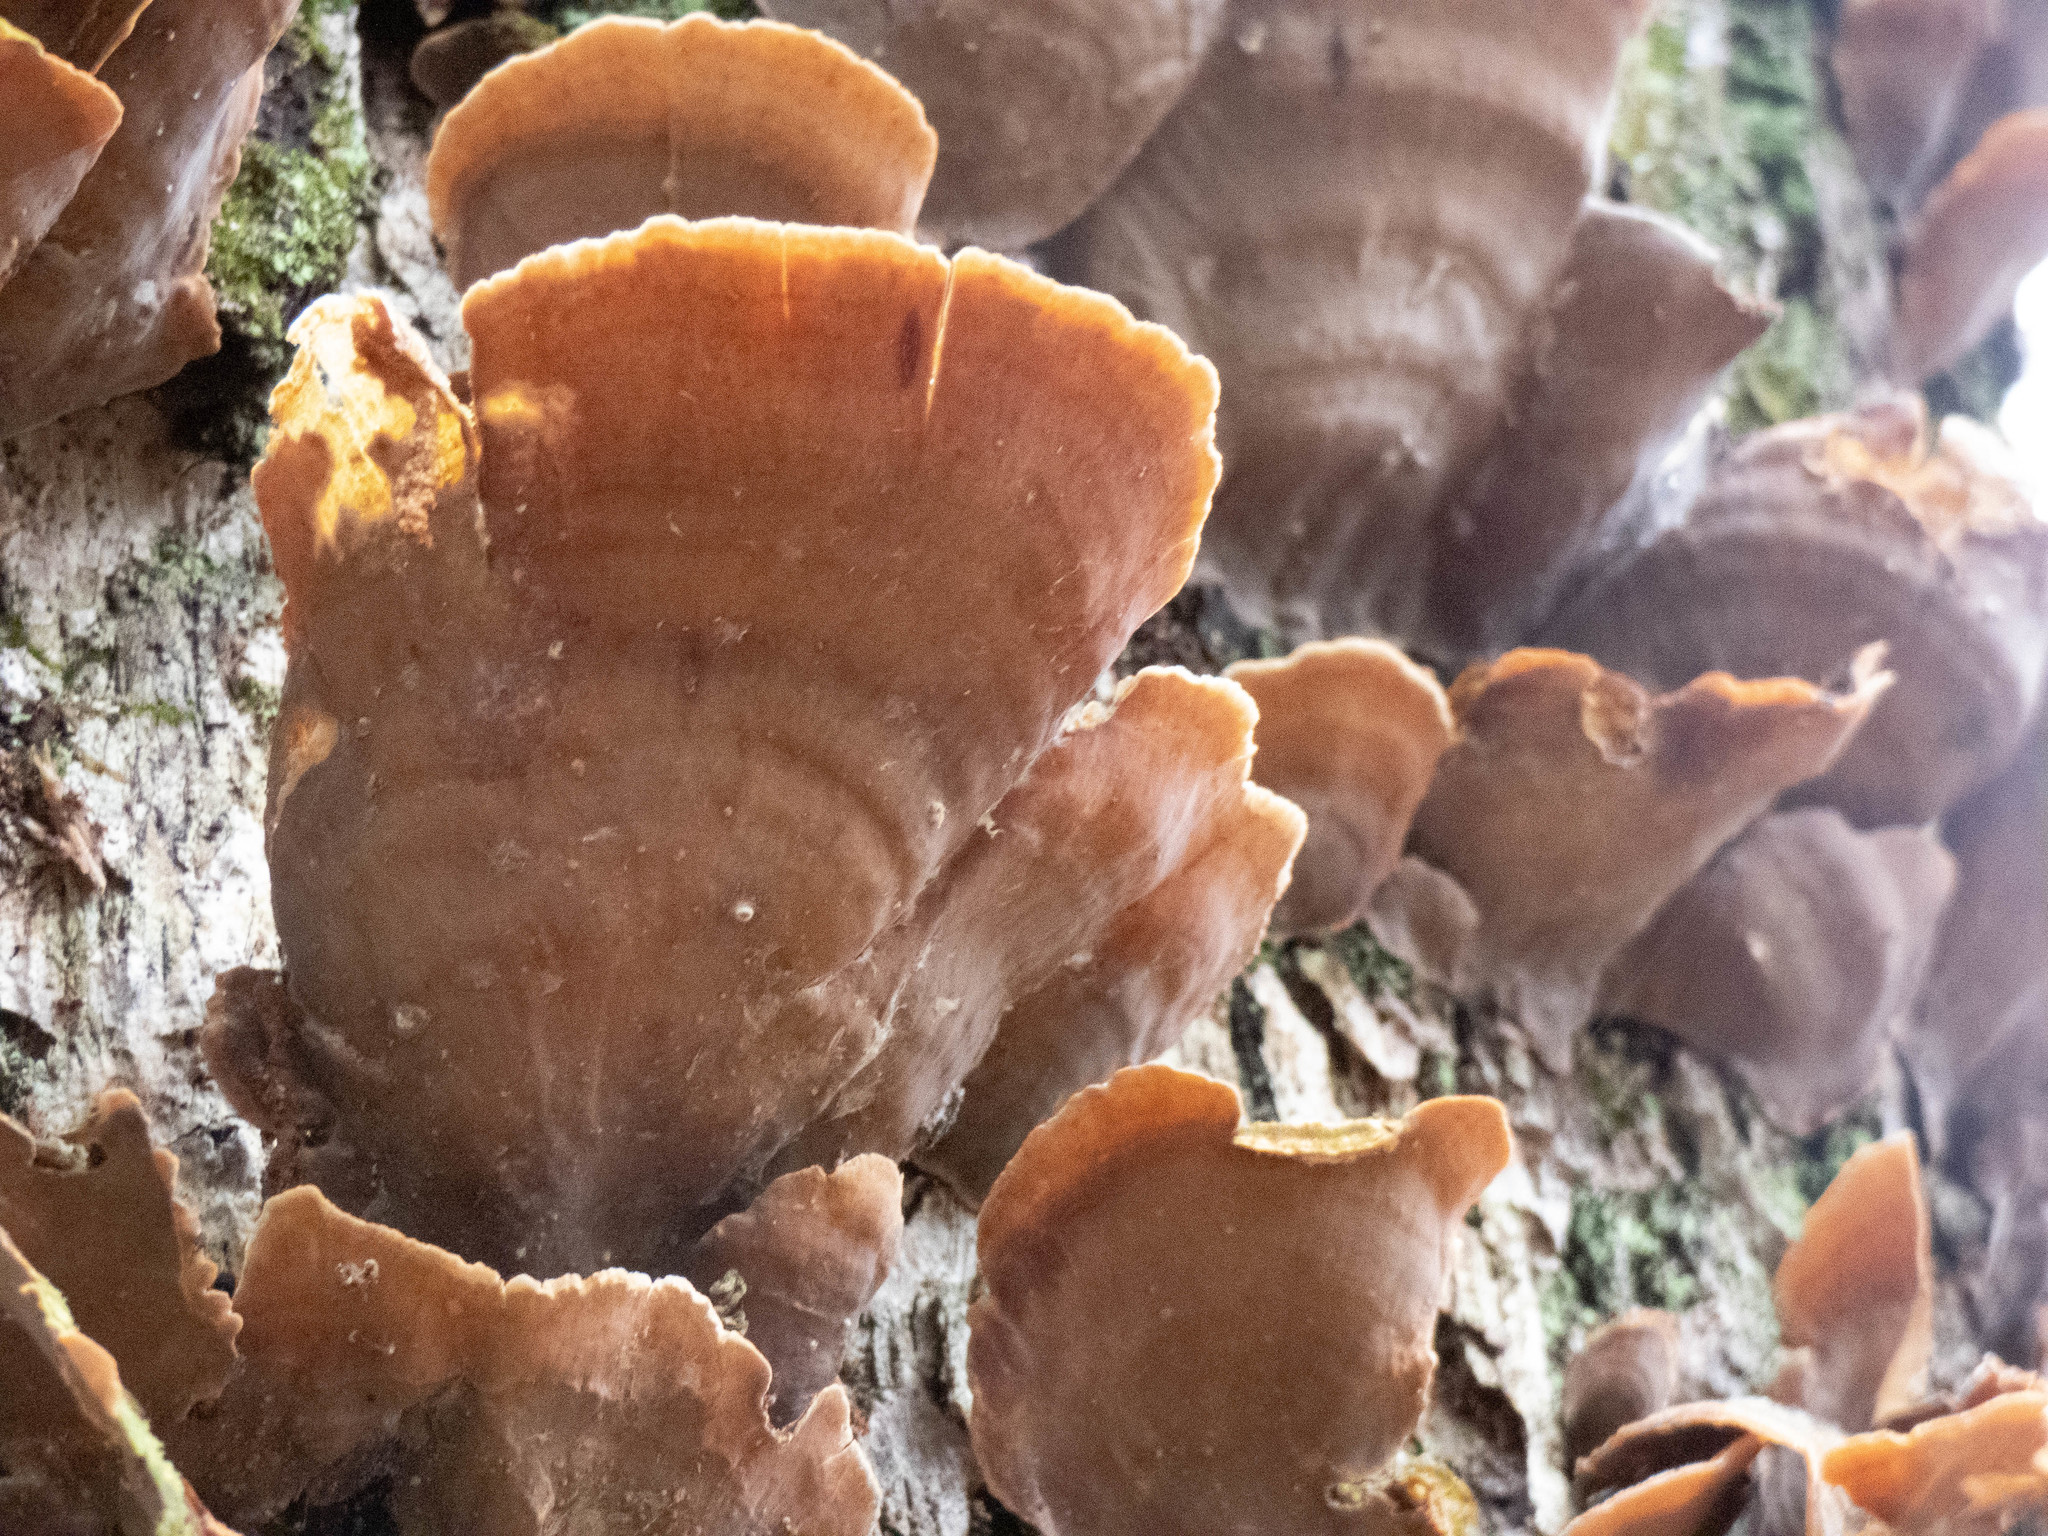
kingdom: Fungi
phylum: Basidiomycota
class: Agaricomycetes
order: Russulales
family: Stereaceae
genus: Stereum
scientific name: Stereum ostrea
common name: False turkeytail
